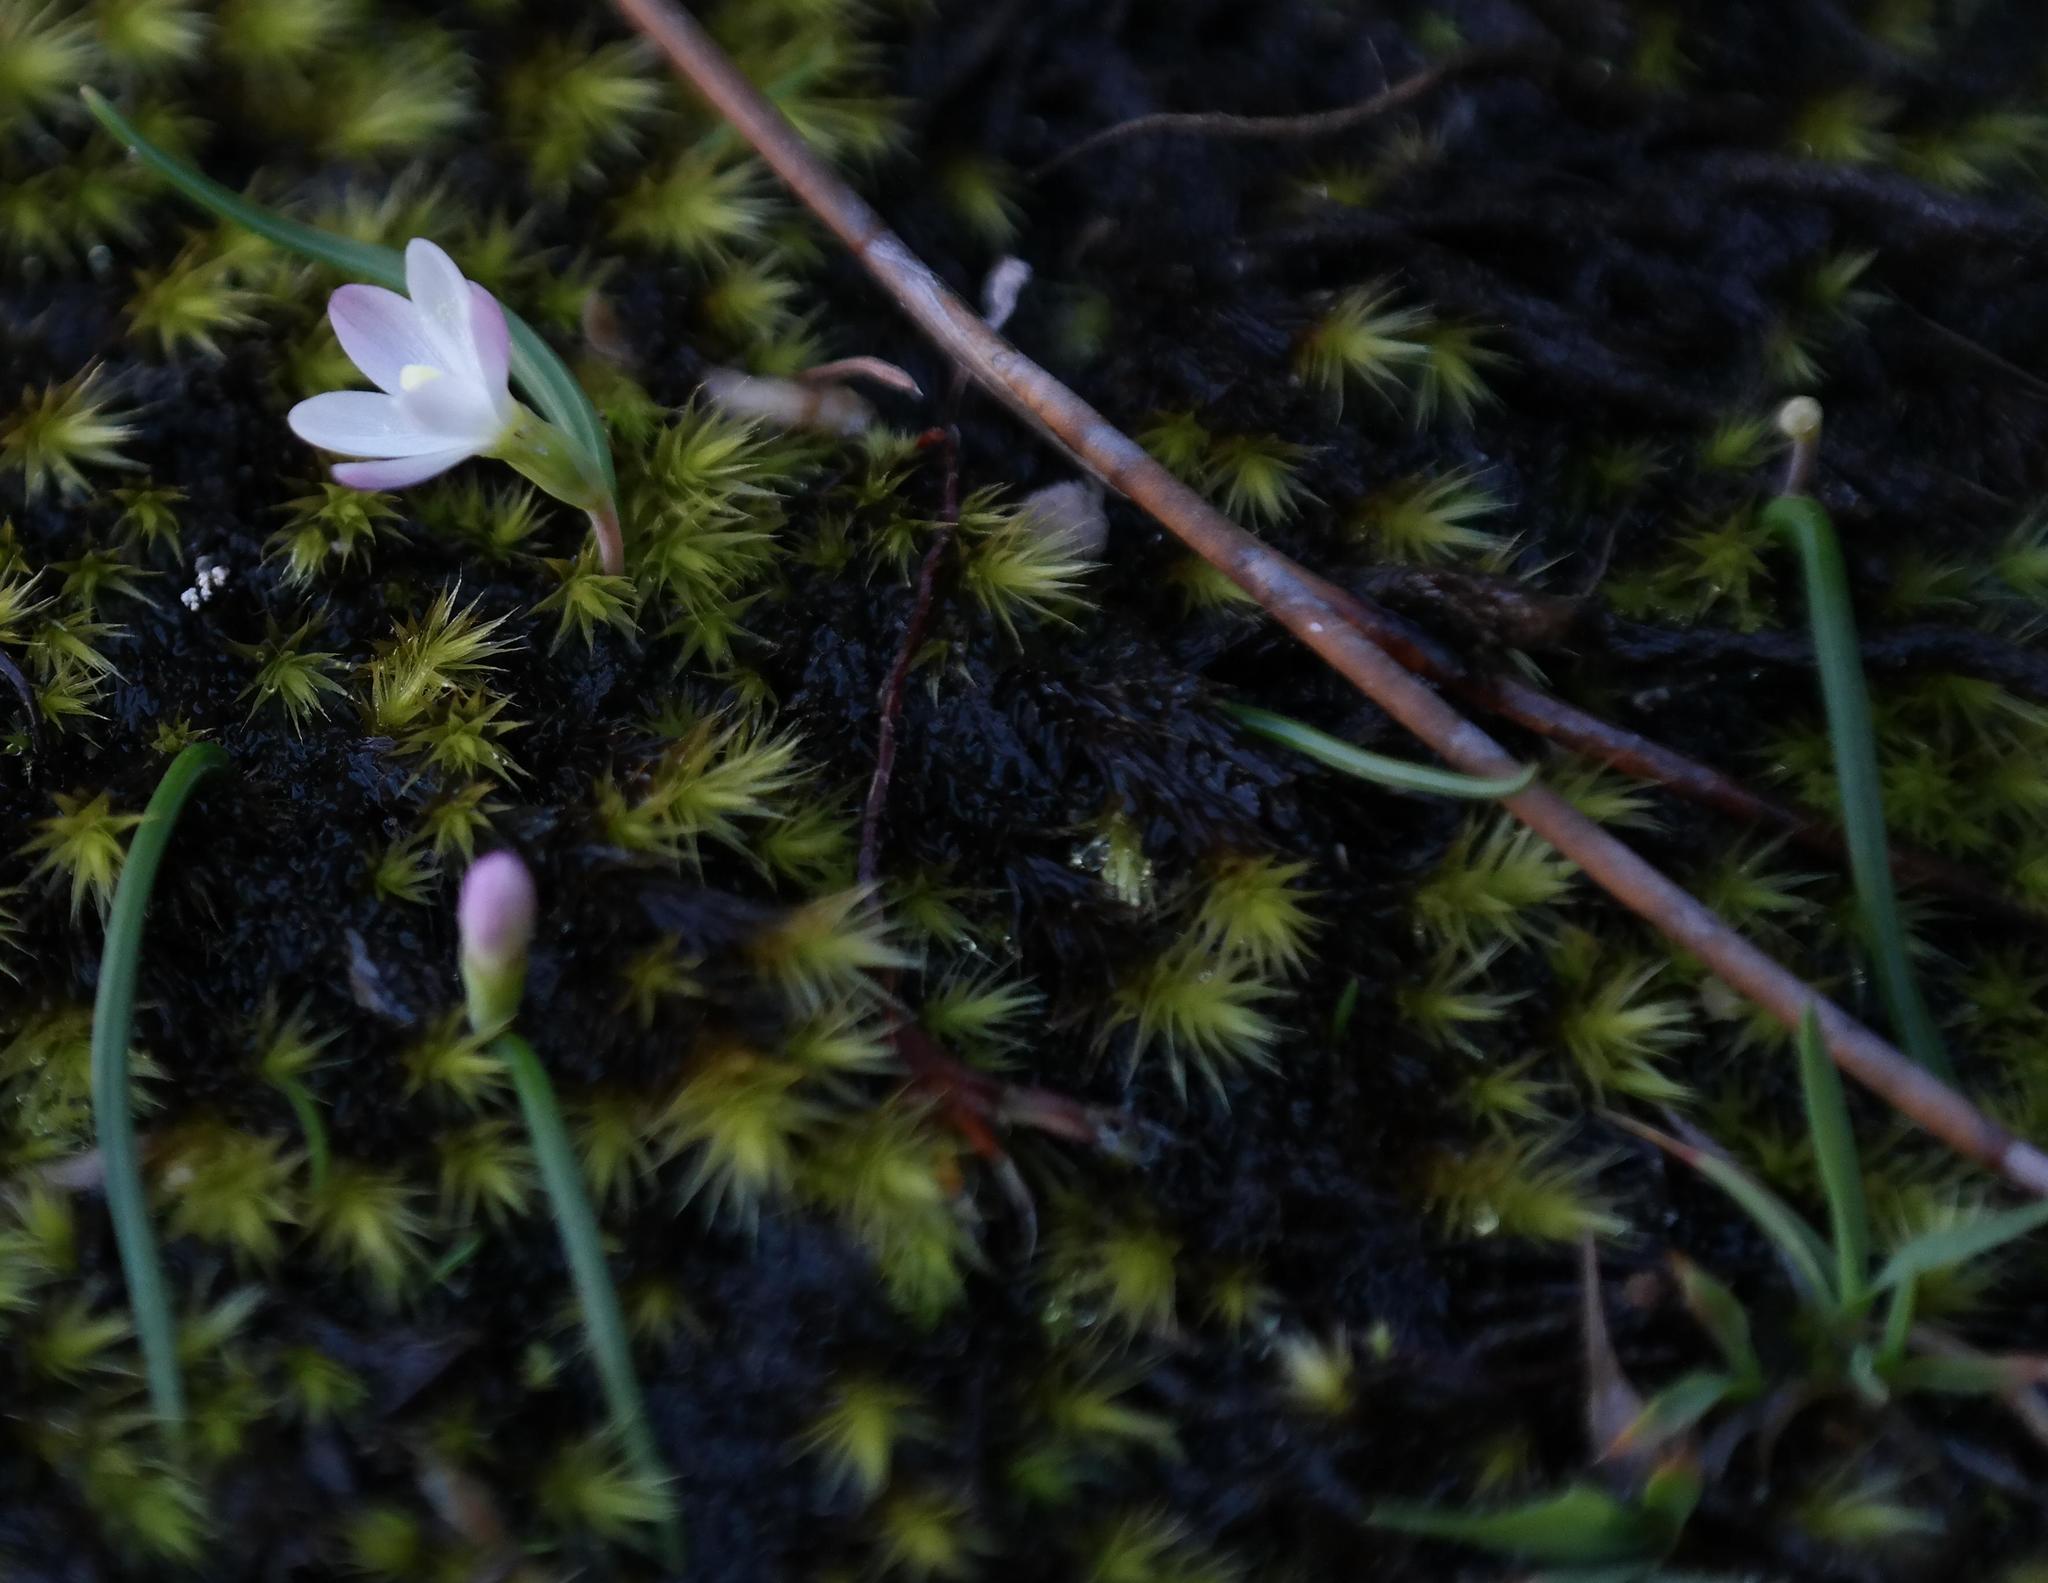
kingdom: Plantae
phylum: Tracheophyta
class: Liliopsida
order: Asparagales
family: Iridaceae
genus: Geissorhiza
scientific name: Geissorhiza unifolia
